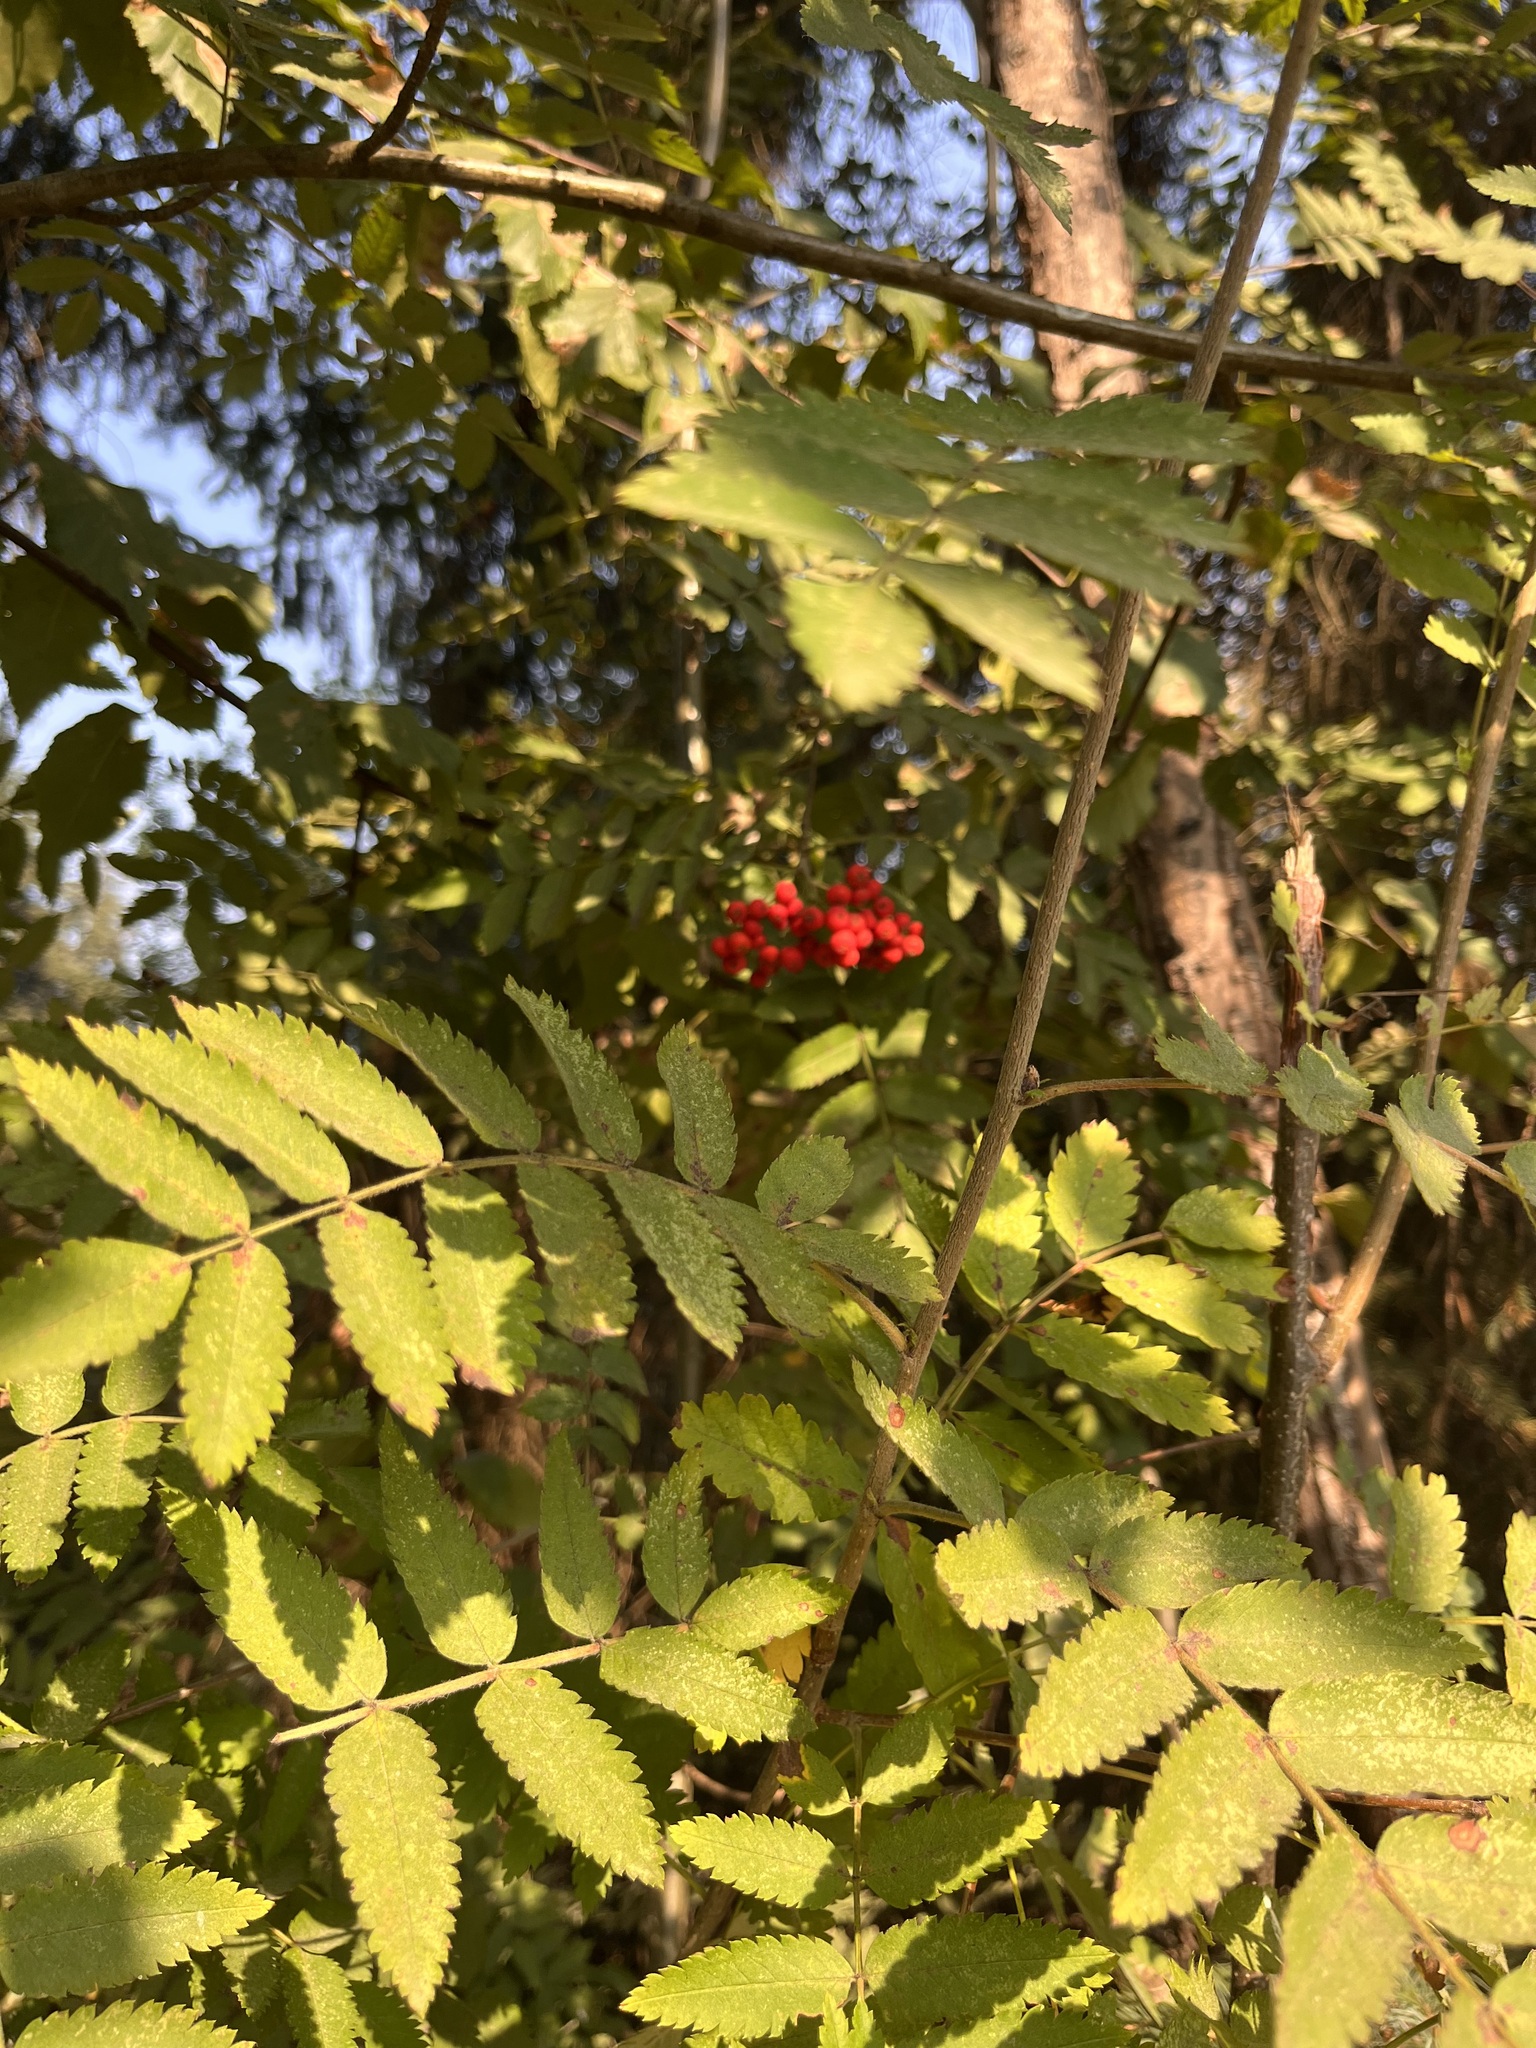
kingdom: Plantae
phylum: Tracheophyta
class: Magnoliopsida
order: Rosales
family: Rosaceae
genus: Sorbus
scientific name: Sorbus aucuparia
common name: Rowan
